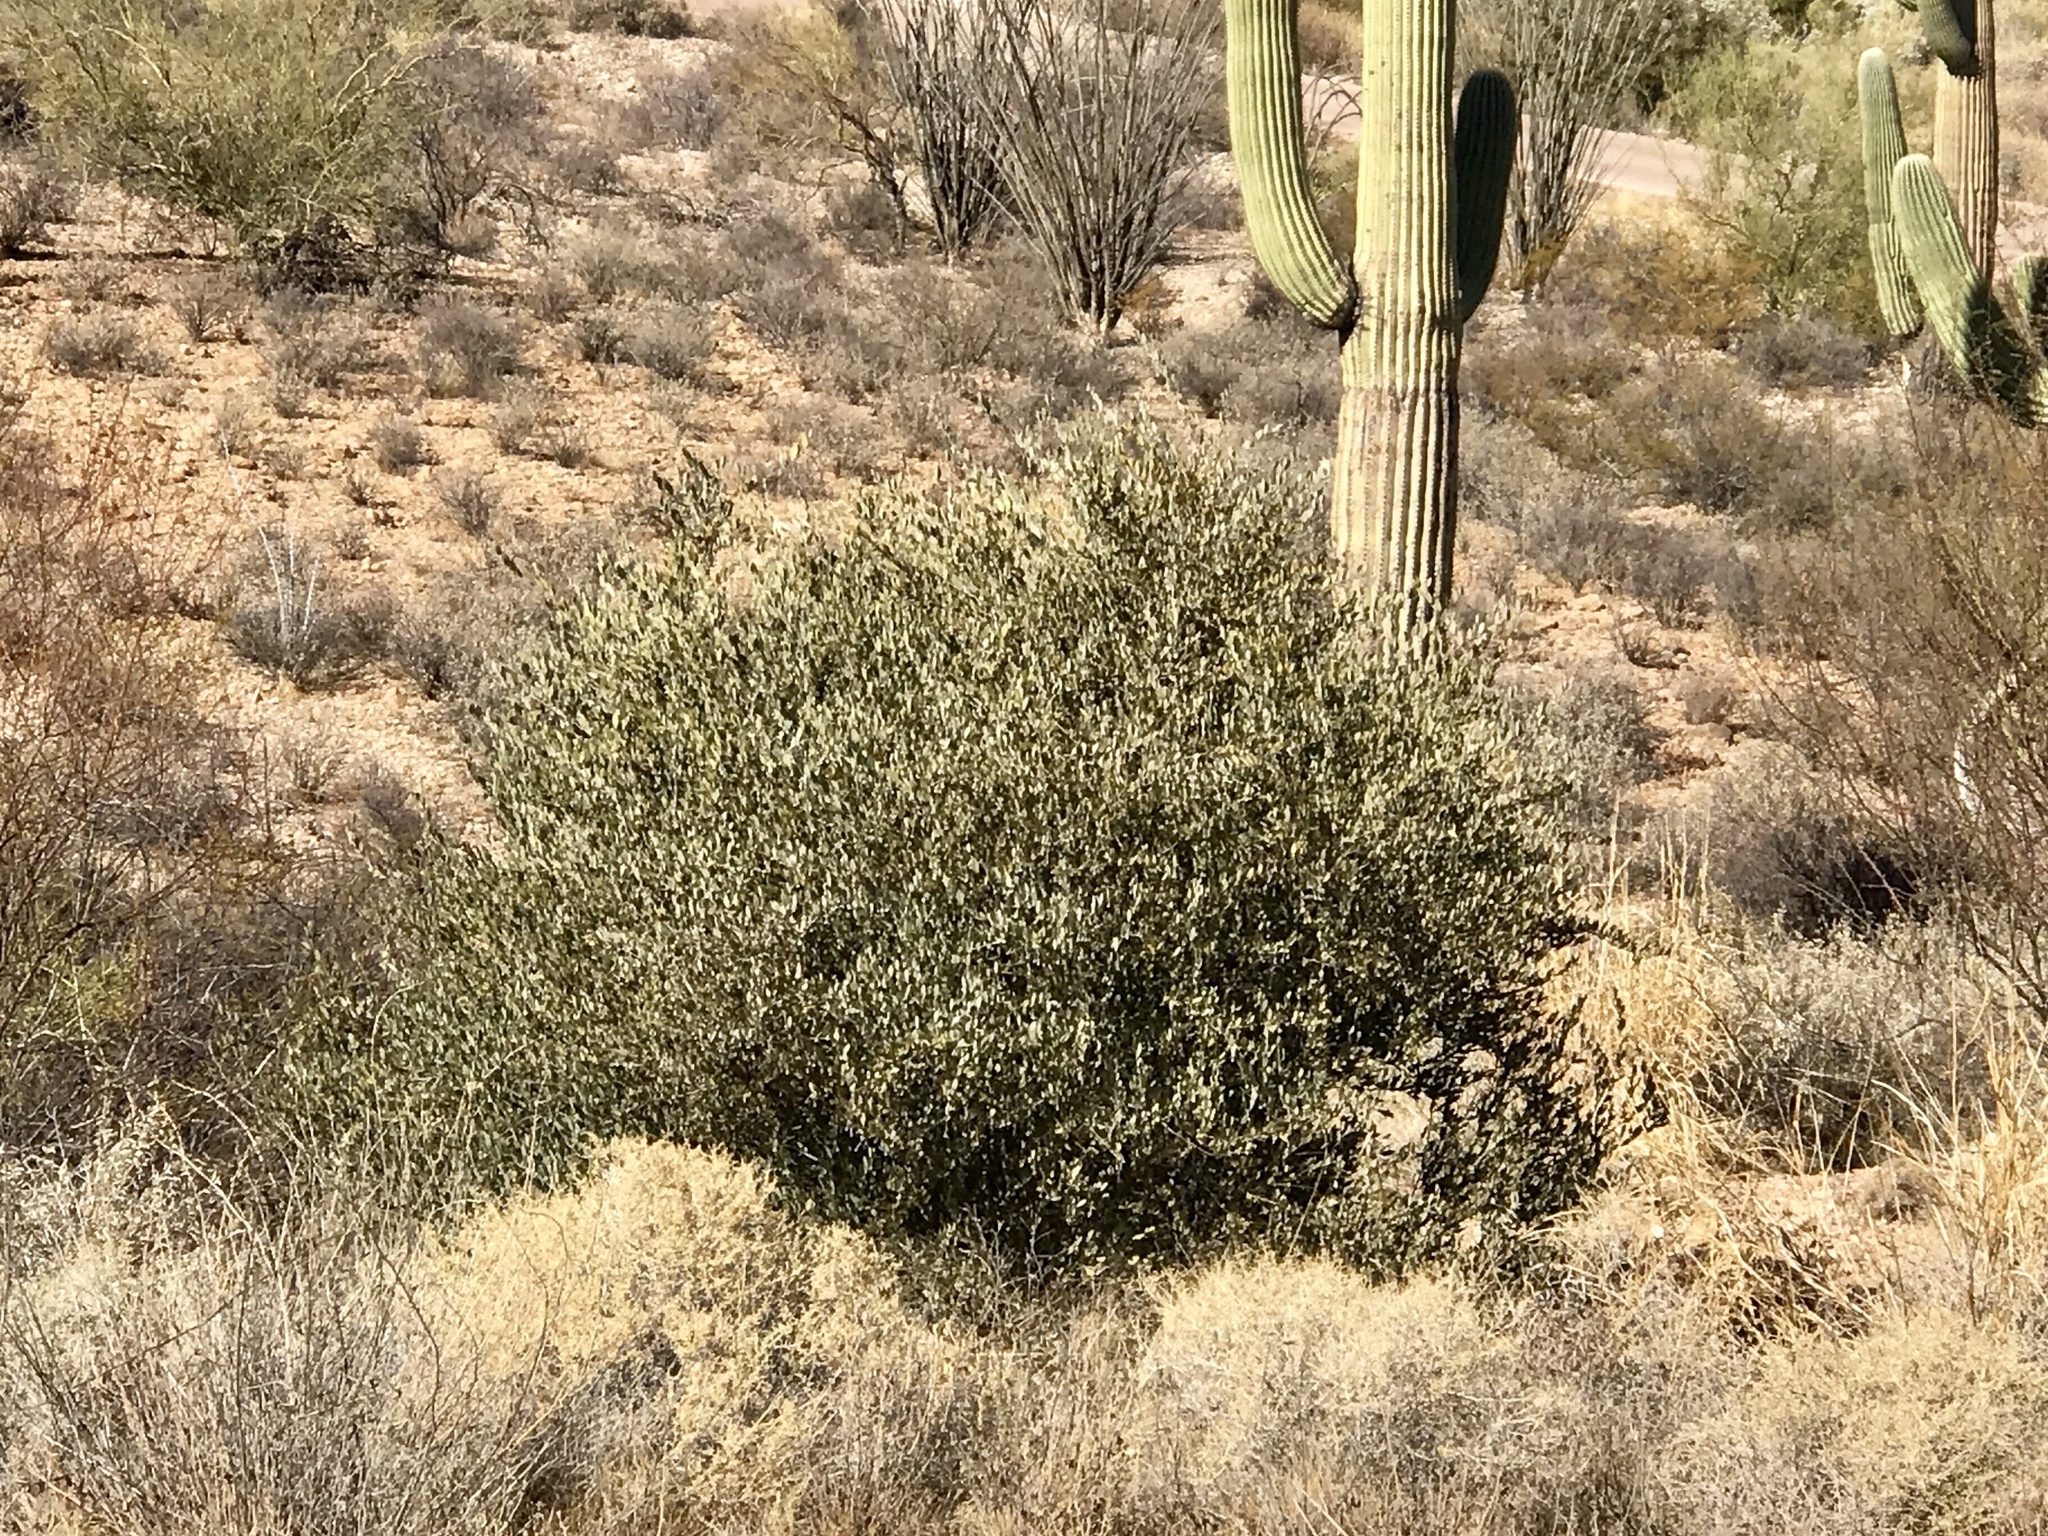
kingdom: Plantae
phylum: Tracheophyta
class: Magnoliopsida
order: Caryophyllales
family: Simmondsiaceae
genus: Simmondsia
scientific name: Simmondsia chinensis
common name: Jojoba
